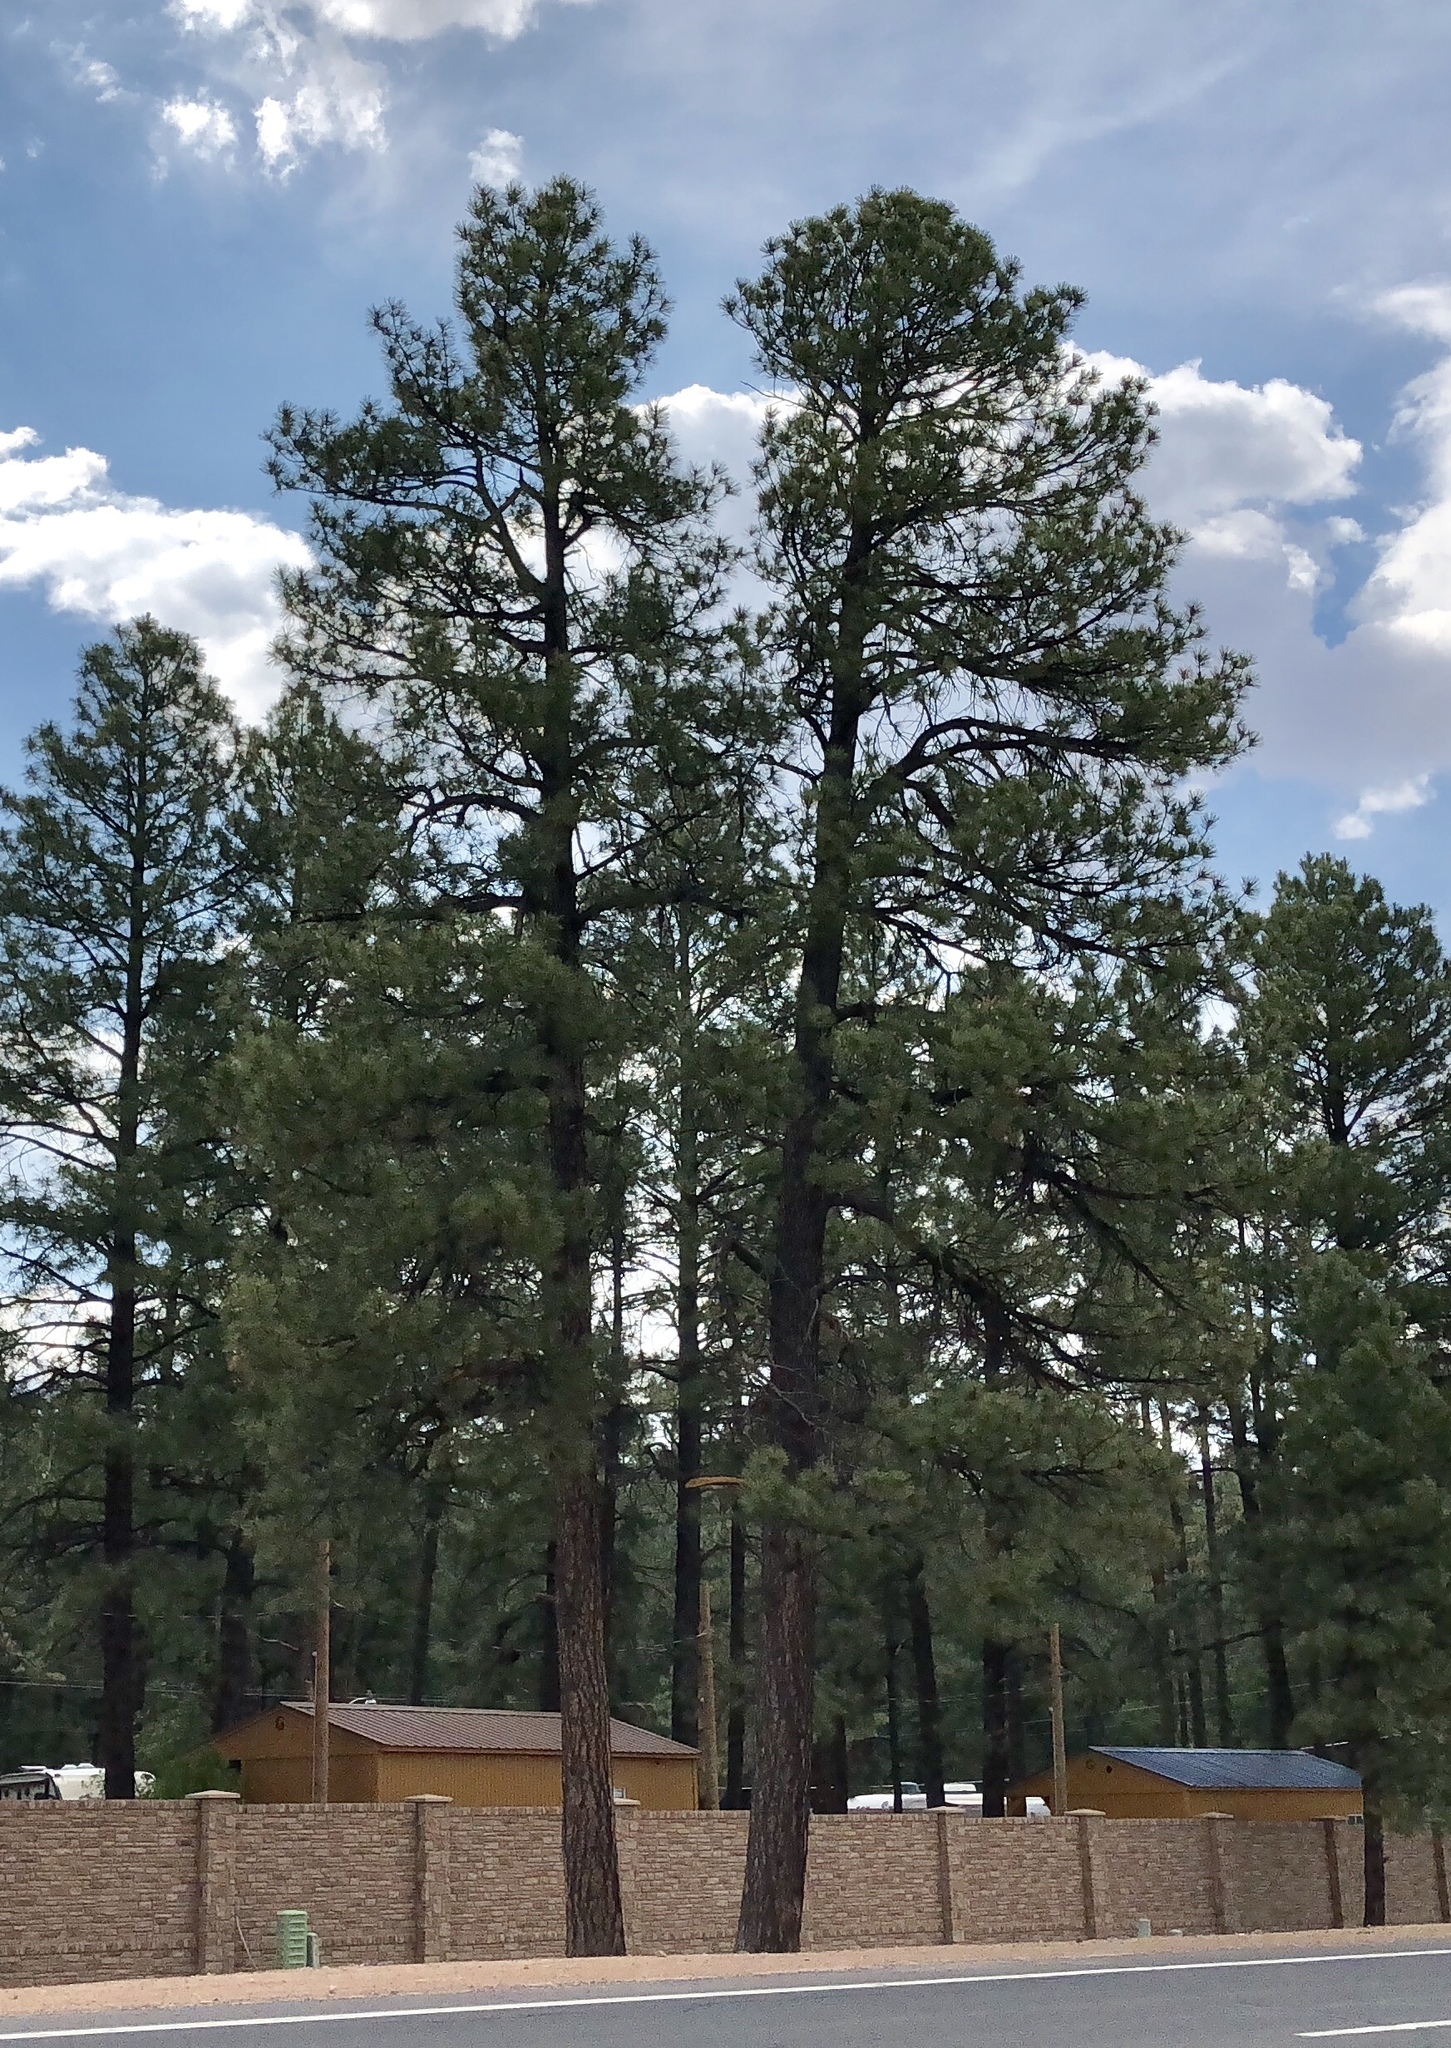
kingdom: Plantae
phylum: Tracheophyta
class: Pinopsida
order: Pinales
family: Pinaceae
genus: Pinus
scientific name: Pinus ponderosa
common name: Western yellow-pine
